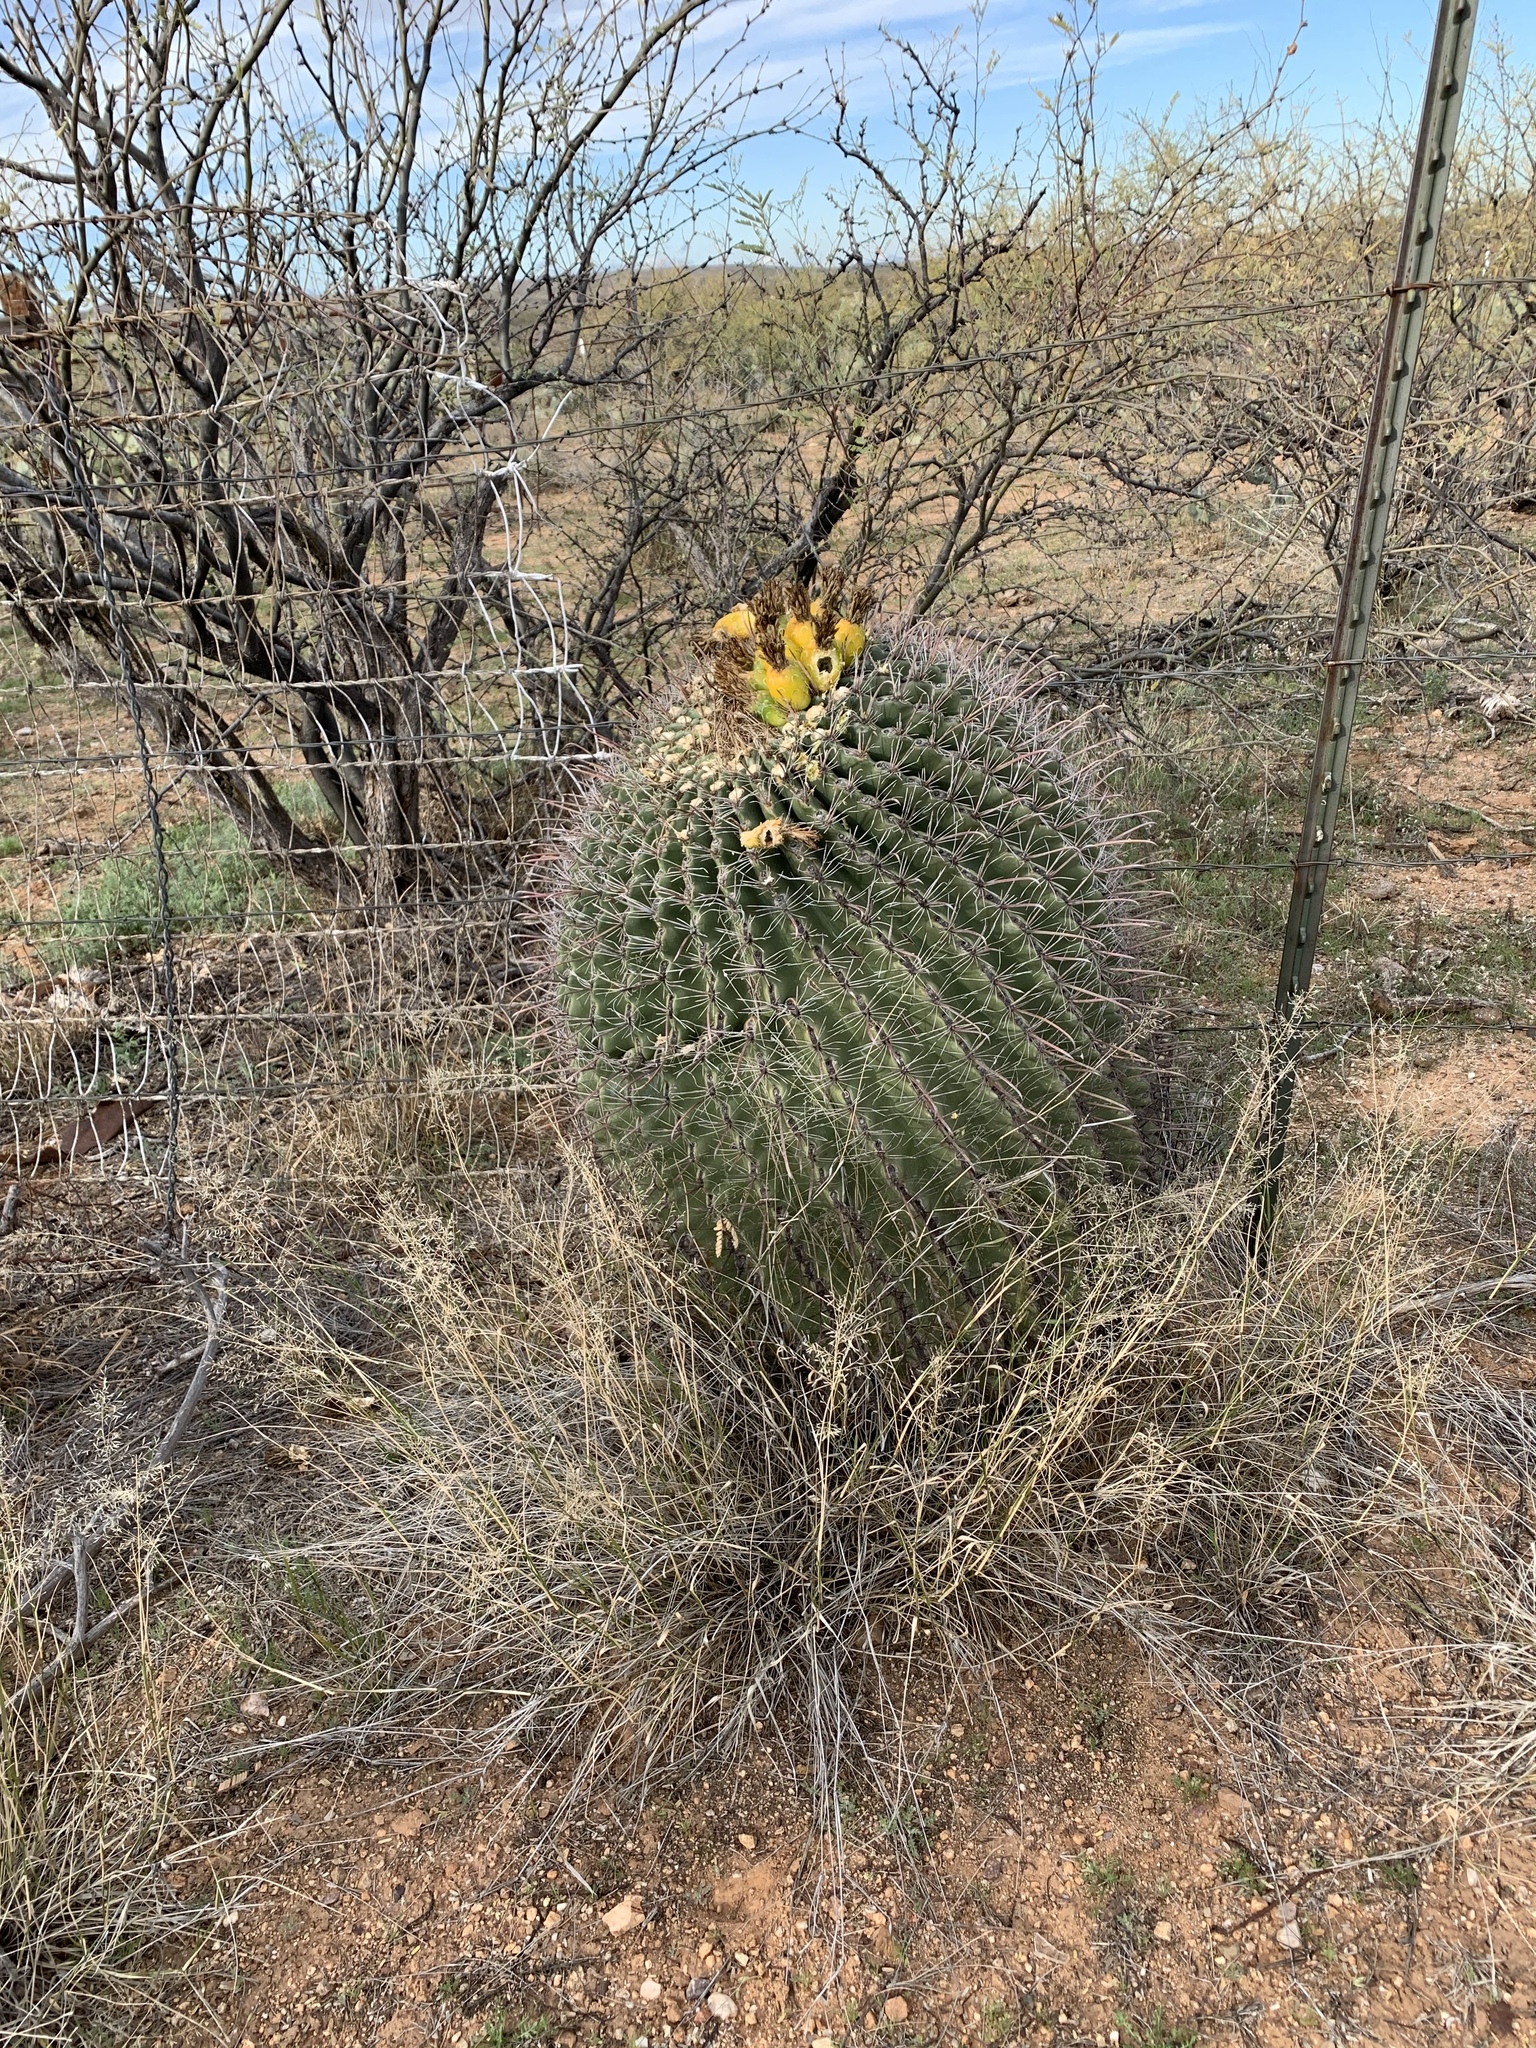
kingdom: Plantae
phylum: Tracheophyta
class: Magnoliopsida
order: Caryophyllales
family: Cactaceae
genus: Ferocactus
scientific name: Ferocactus wislizeni
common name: Candy barrel cactus
